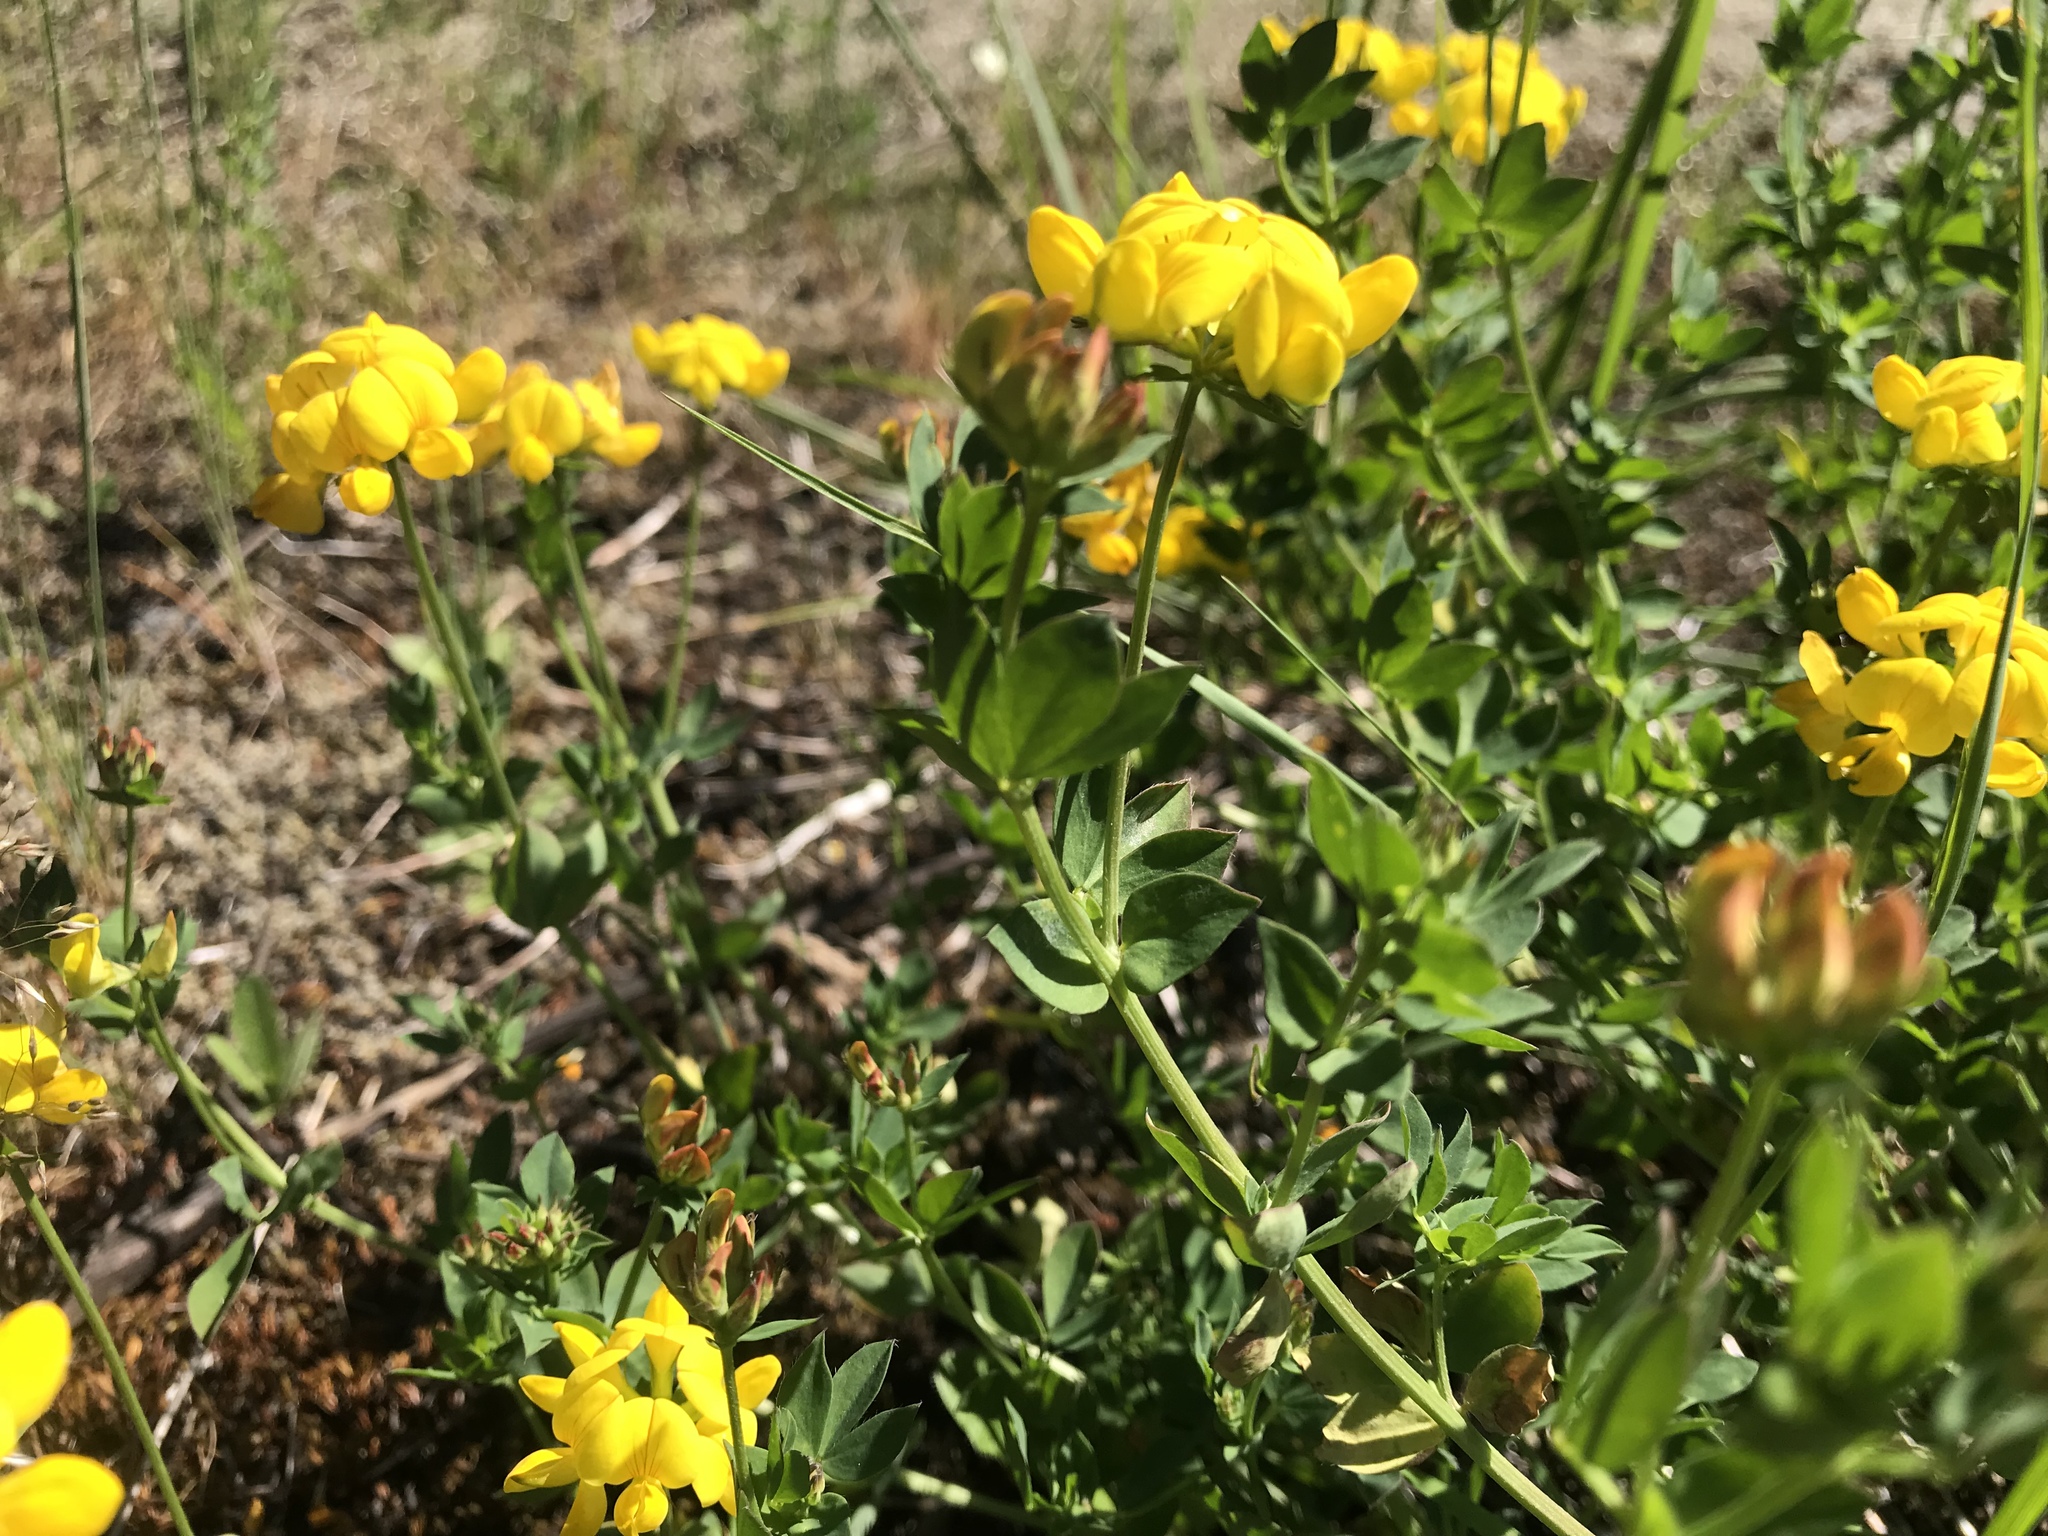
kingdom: Plantae
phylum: Tracheophyta
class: Magnoliopsida
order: Fabales
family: Fabaceae
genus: Lotus
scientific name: Lotus corniculatus
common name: Common bird's-foot-trefoil
